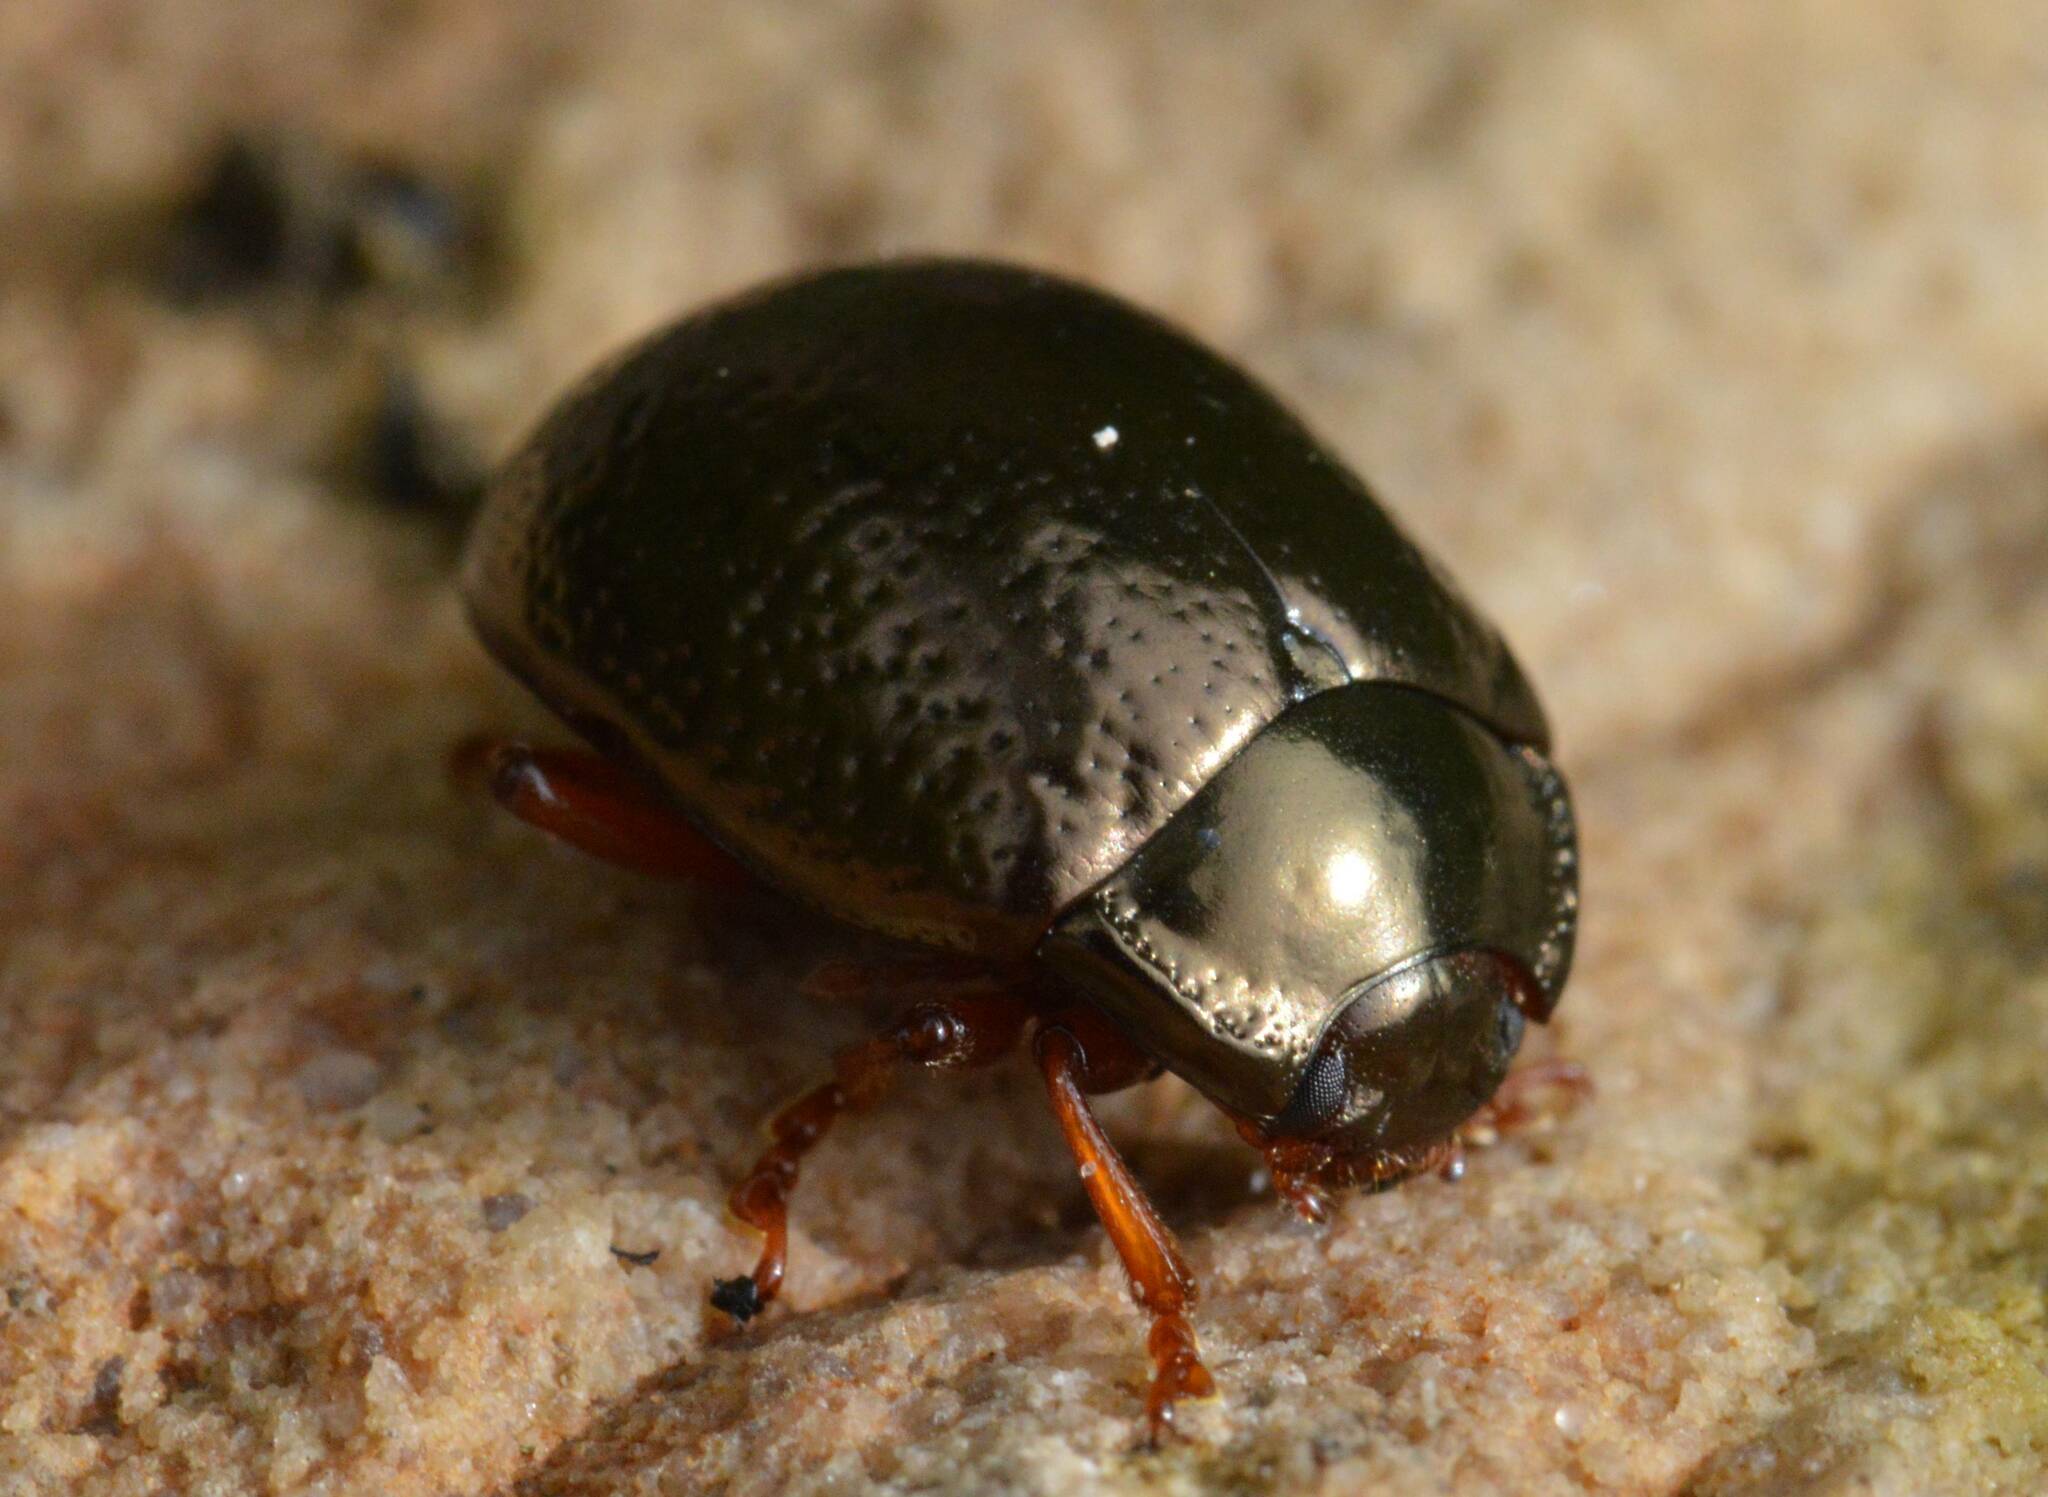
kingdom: Animalia
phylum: Arthropoda
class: Insecta
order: Coleoptera
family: Chrysomelidae
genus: Chrysolina
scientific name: Chrysolina bankii
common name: Leaf beetle
